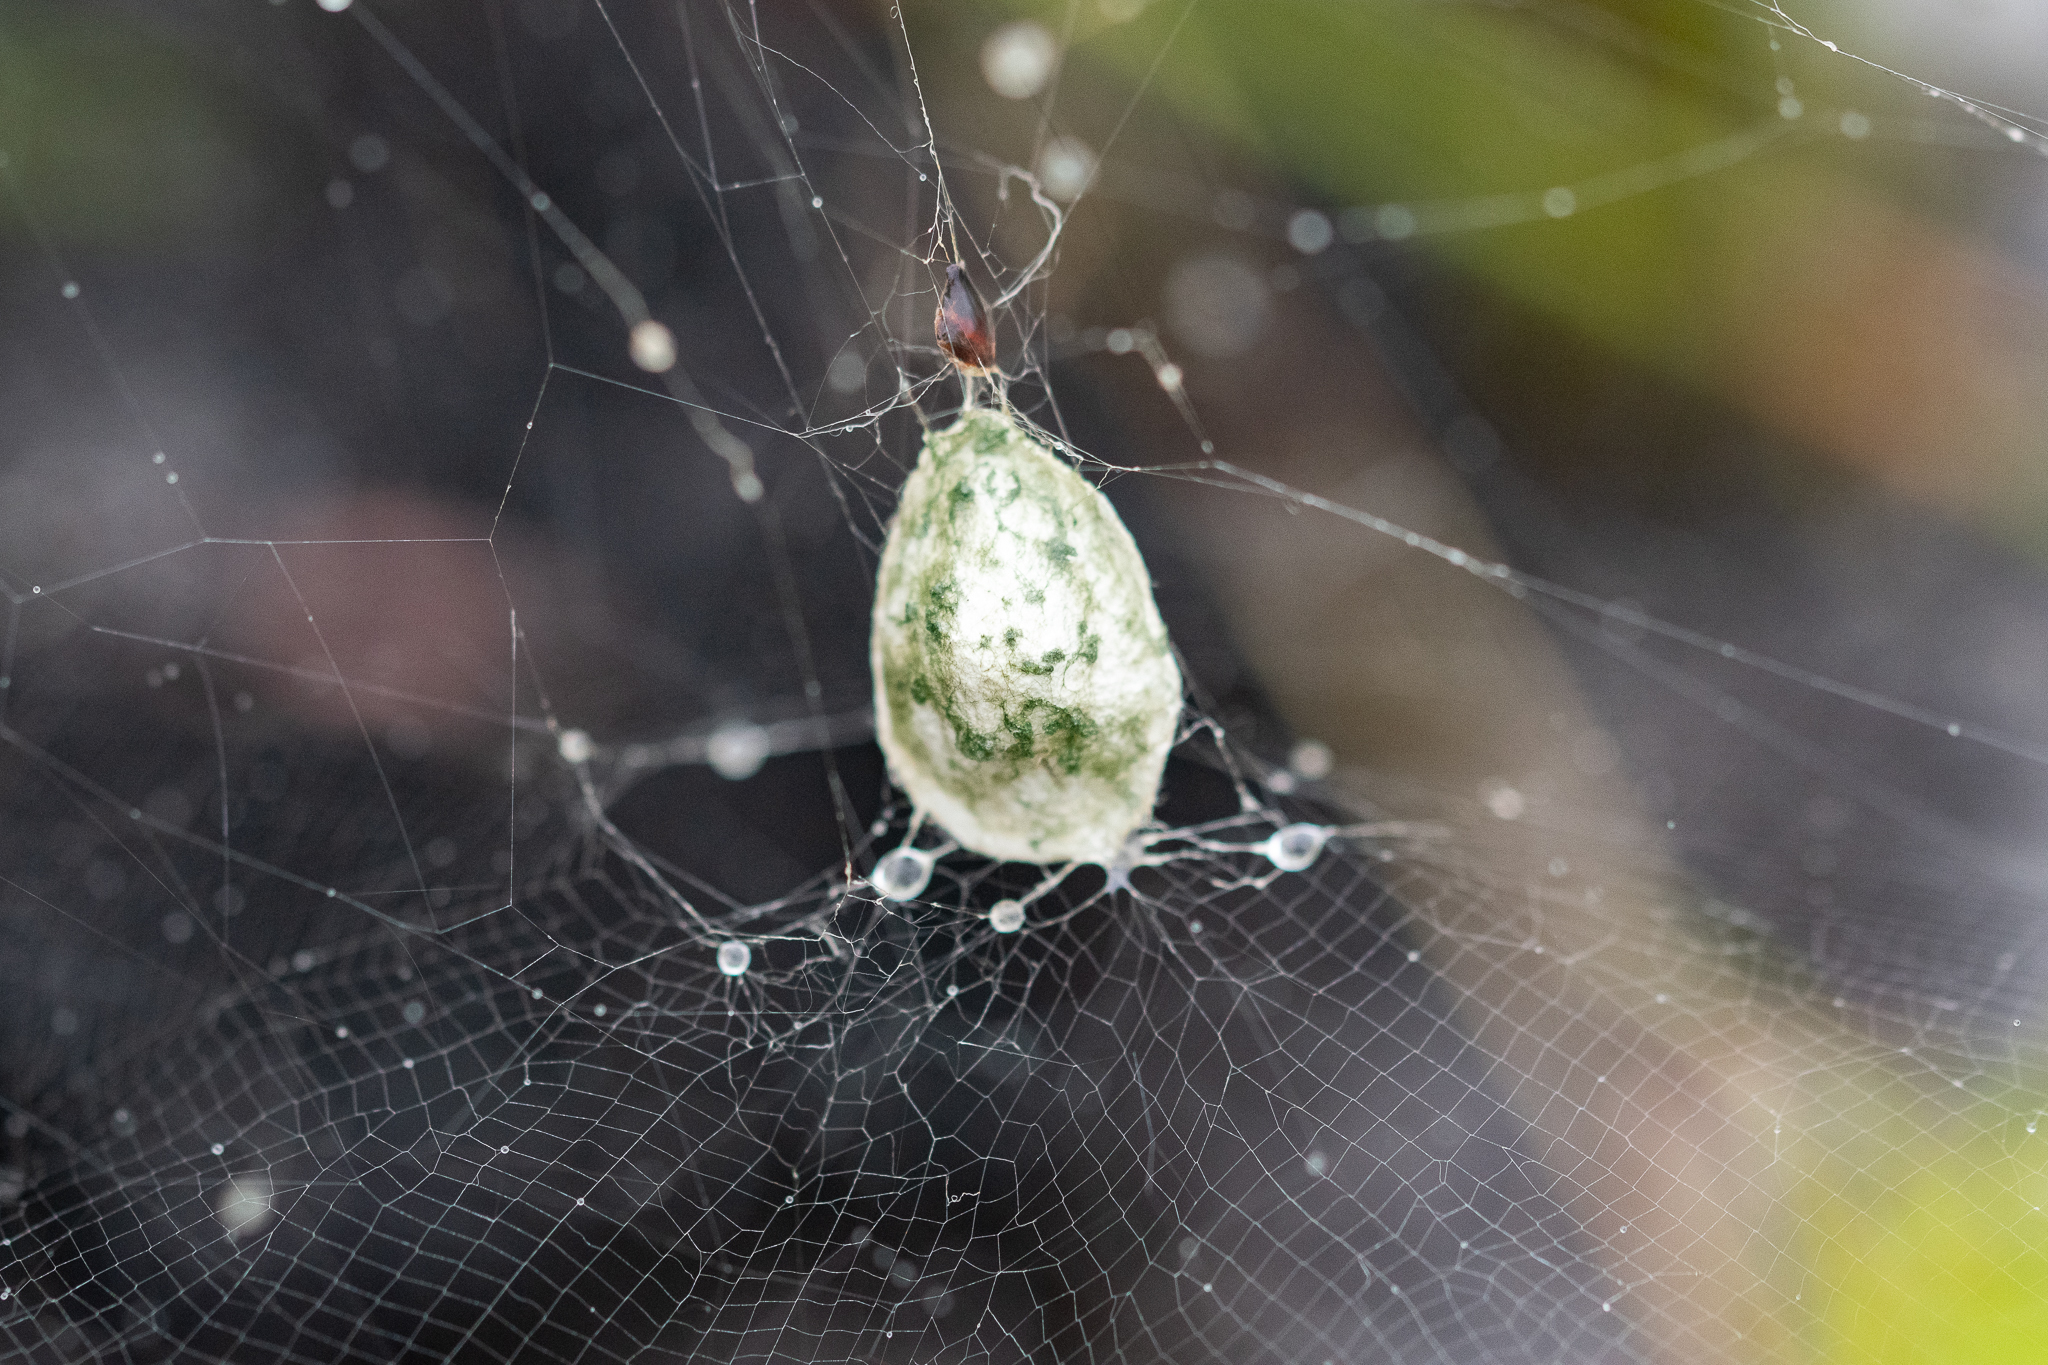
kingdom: Animalia
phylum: Arthropoda
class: Arachnida
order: Araneae
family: Araneidae
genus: Cyrtophora
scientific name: Cyrtophora citricola
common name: Orb weavers
